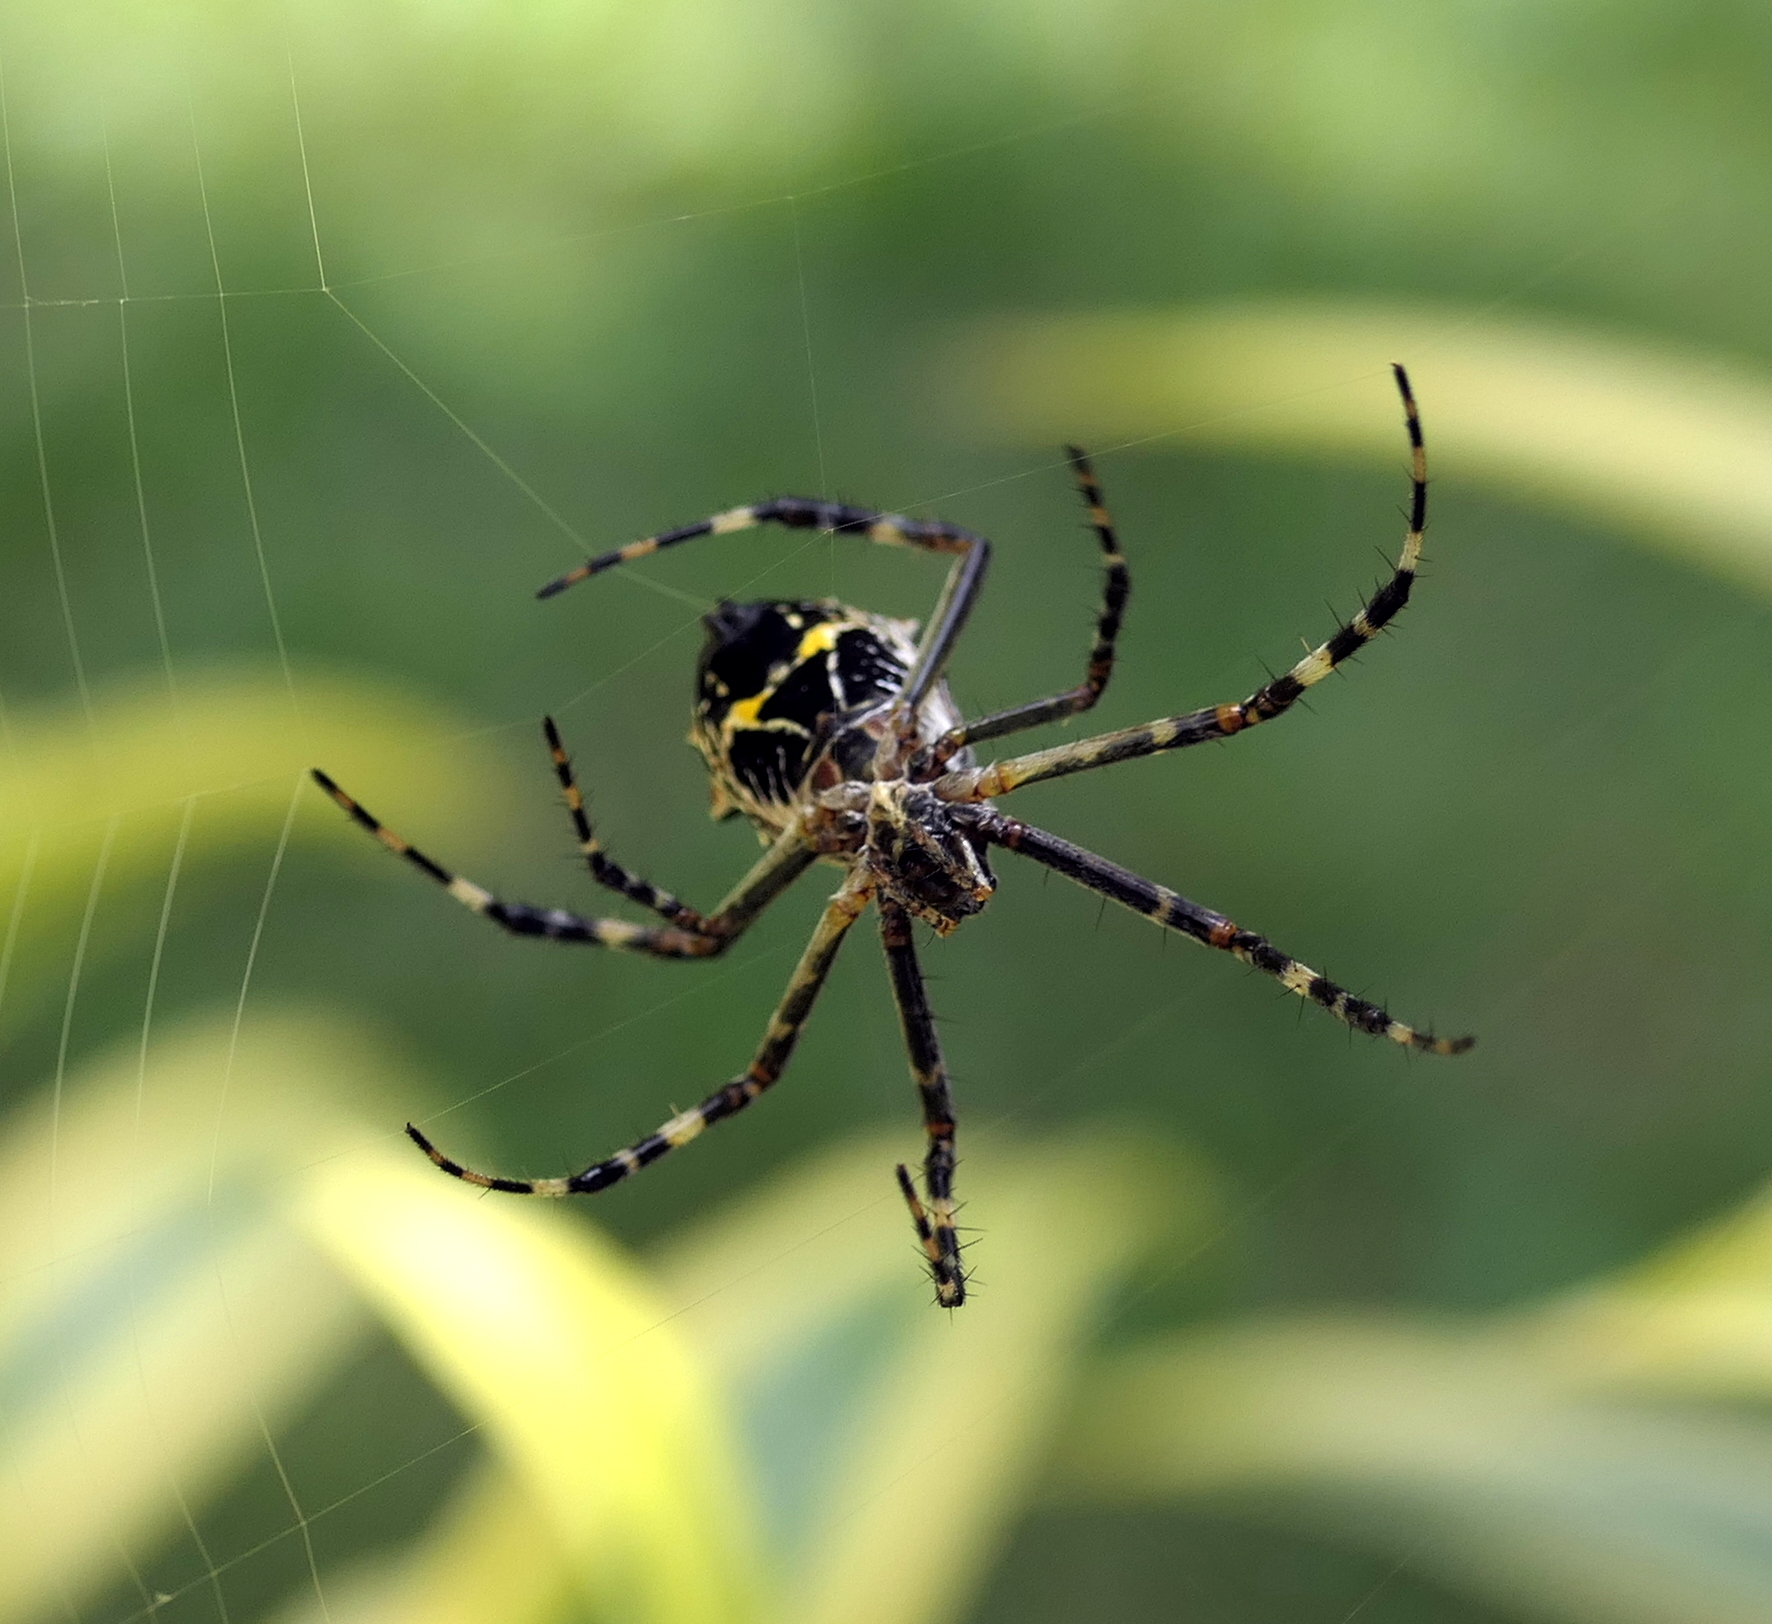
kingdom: Animalia
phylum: Arthropoda
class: Arachnida
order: Araneae
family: Araneidae
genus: Argiope
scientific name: Argiope argentata
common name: Orb weavers
